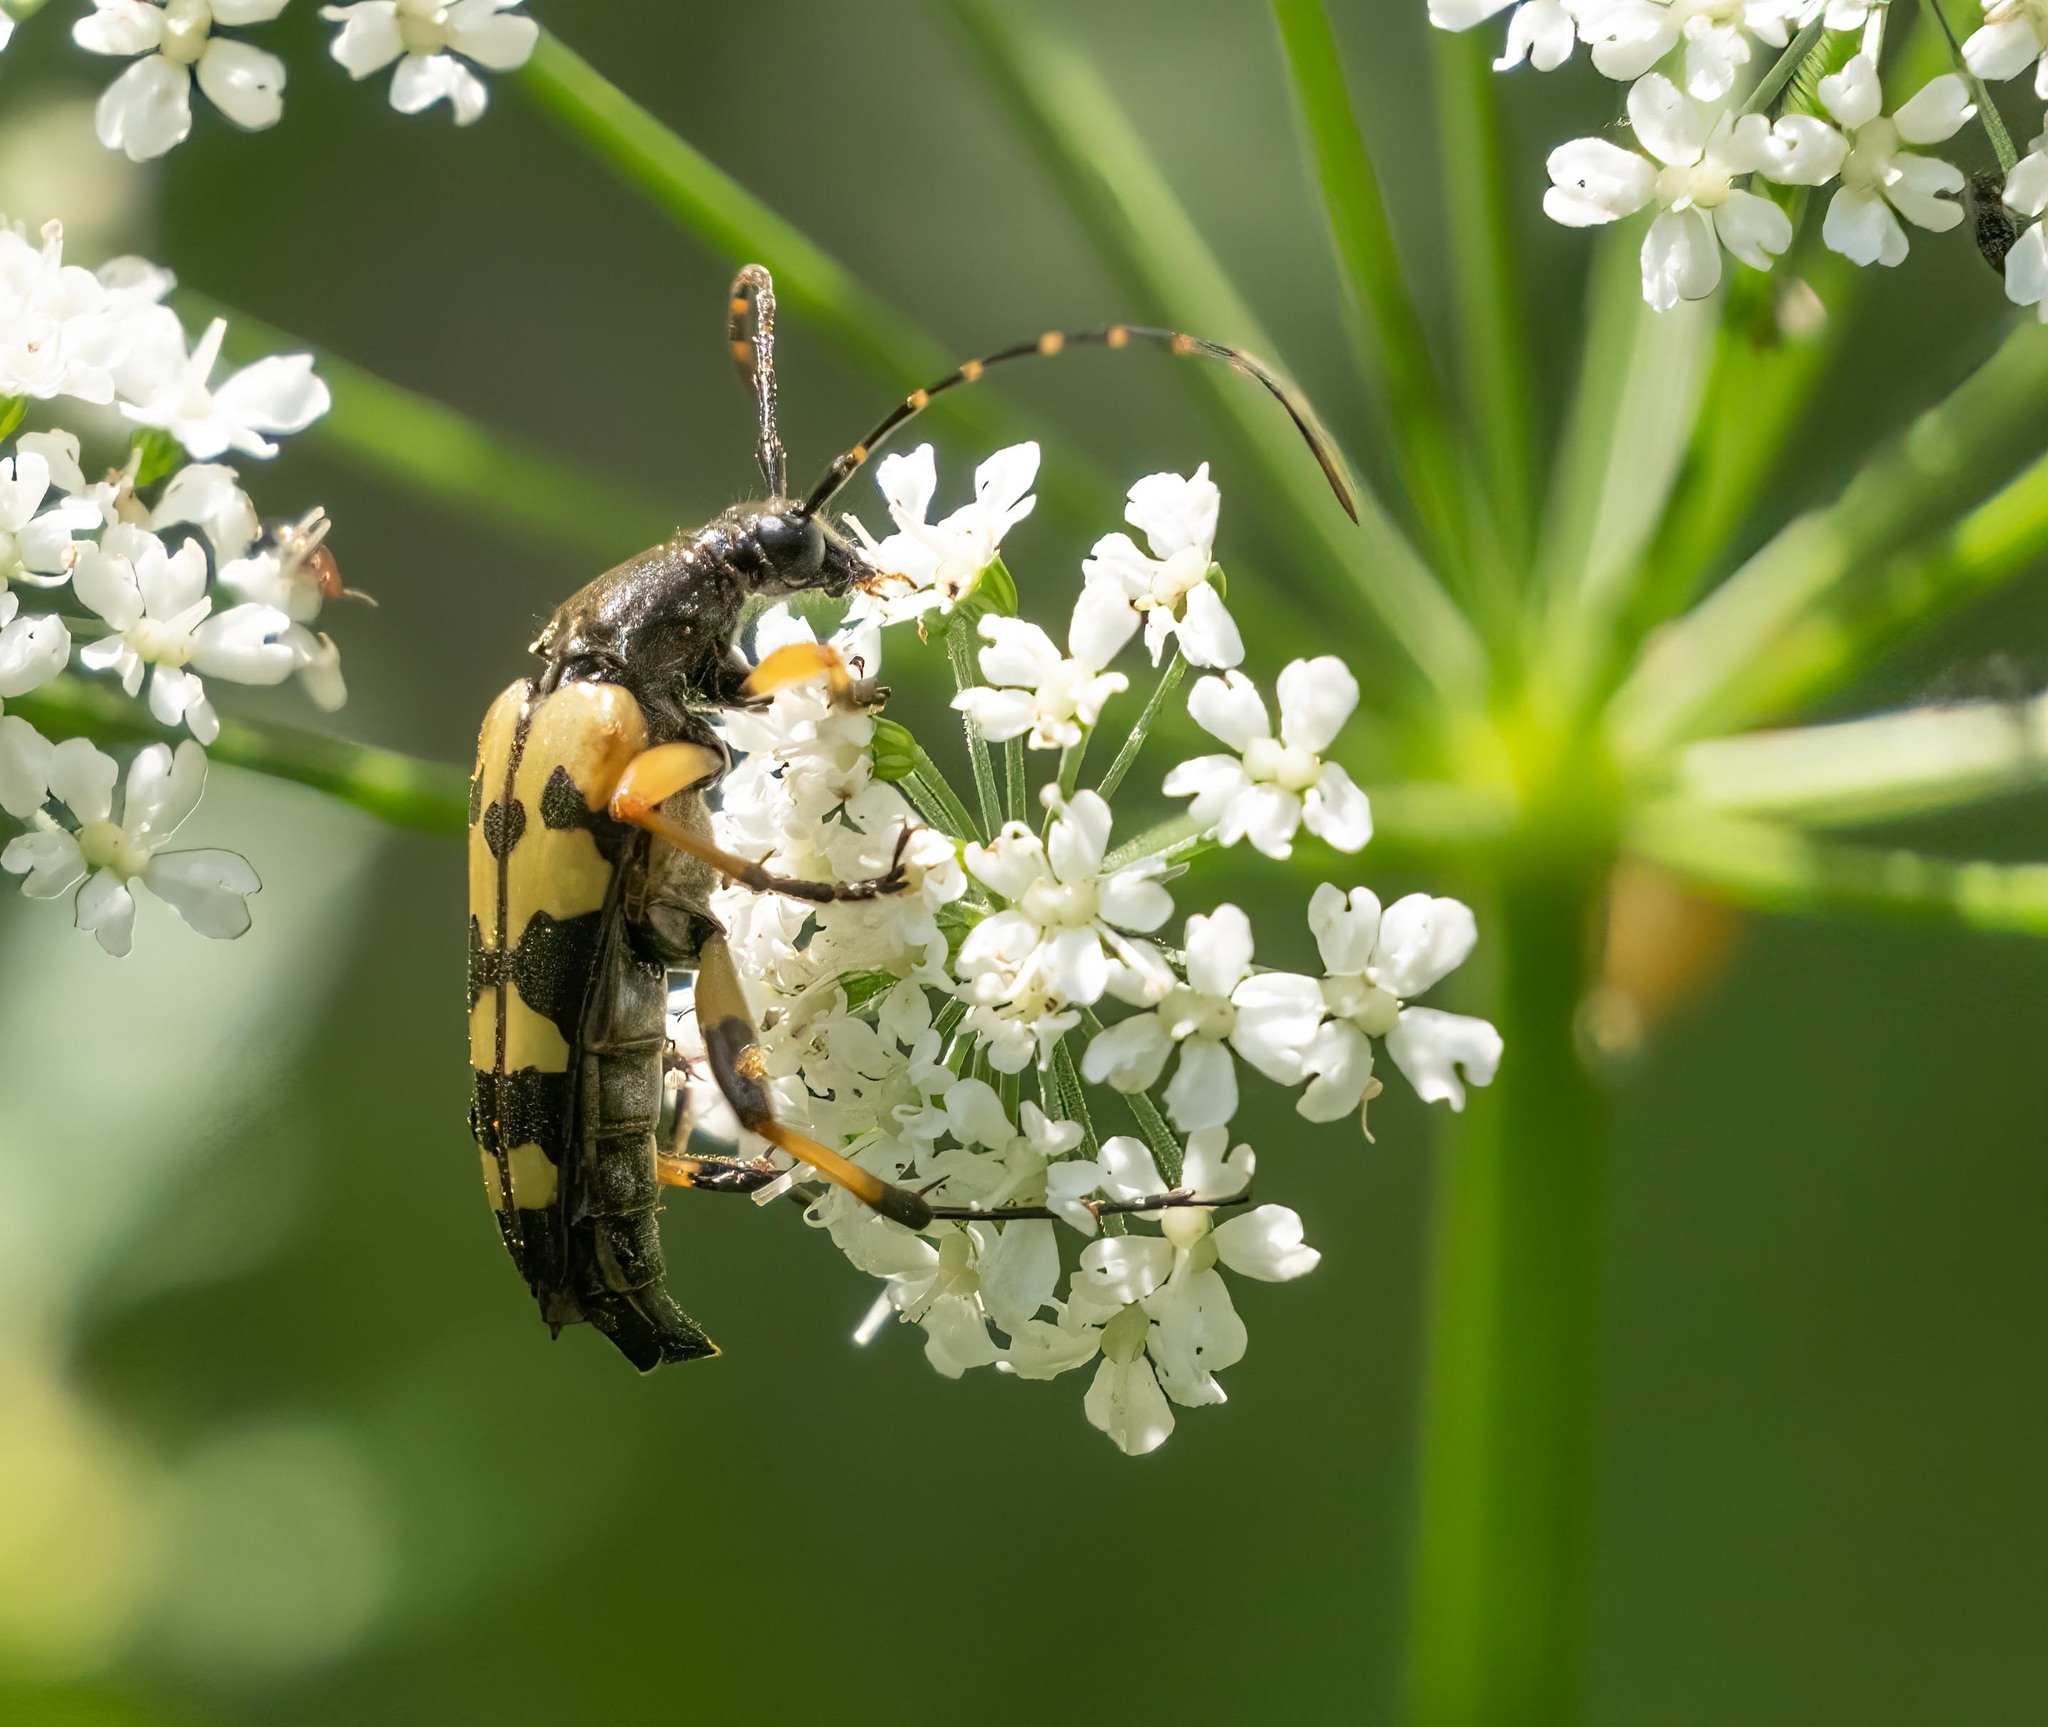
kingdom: Animalia
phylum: Arthropoda
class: Insecta
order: Coleoptera
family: Cerambycidae
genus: Rutpela
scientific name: Rutpela maculata
